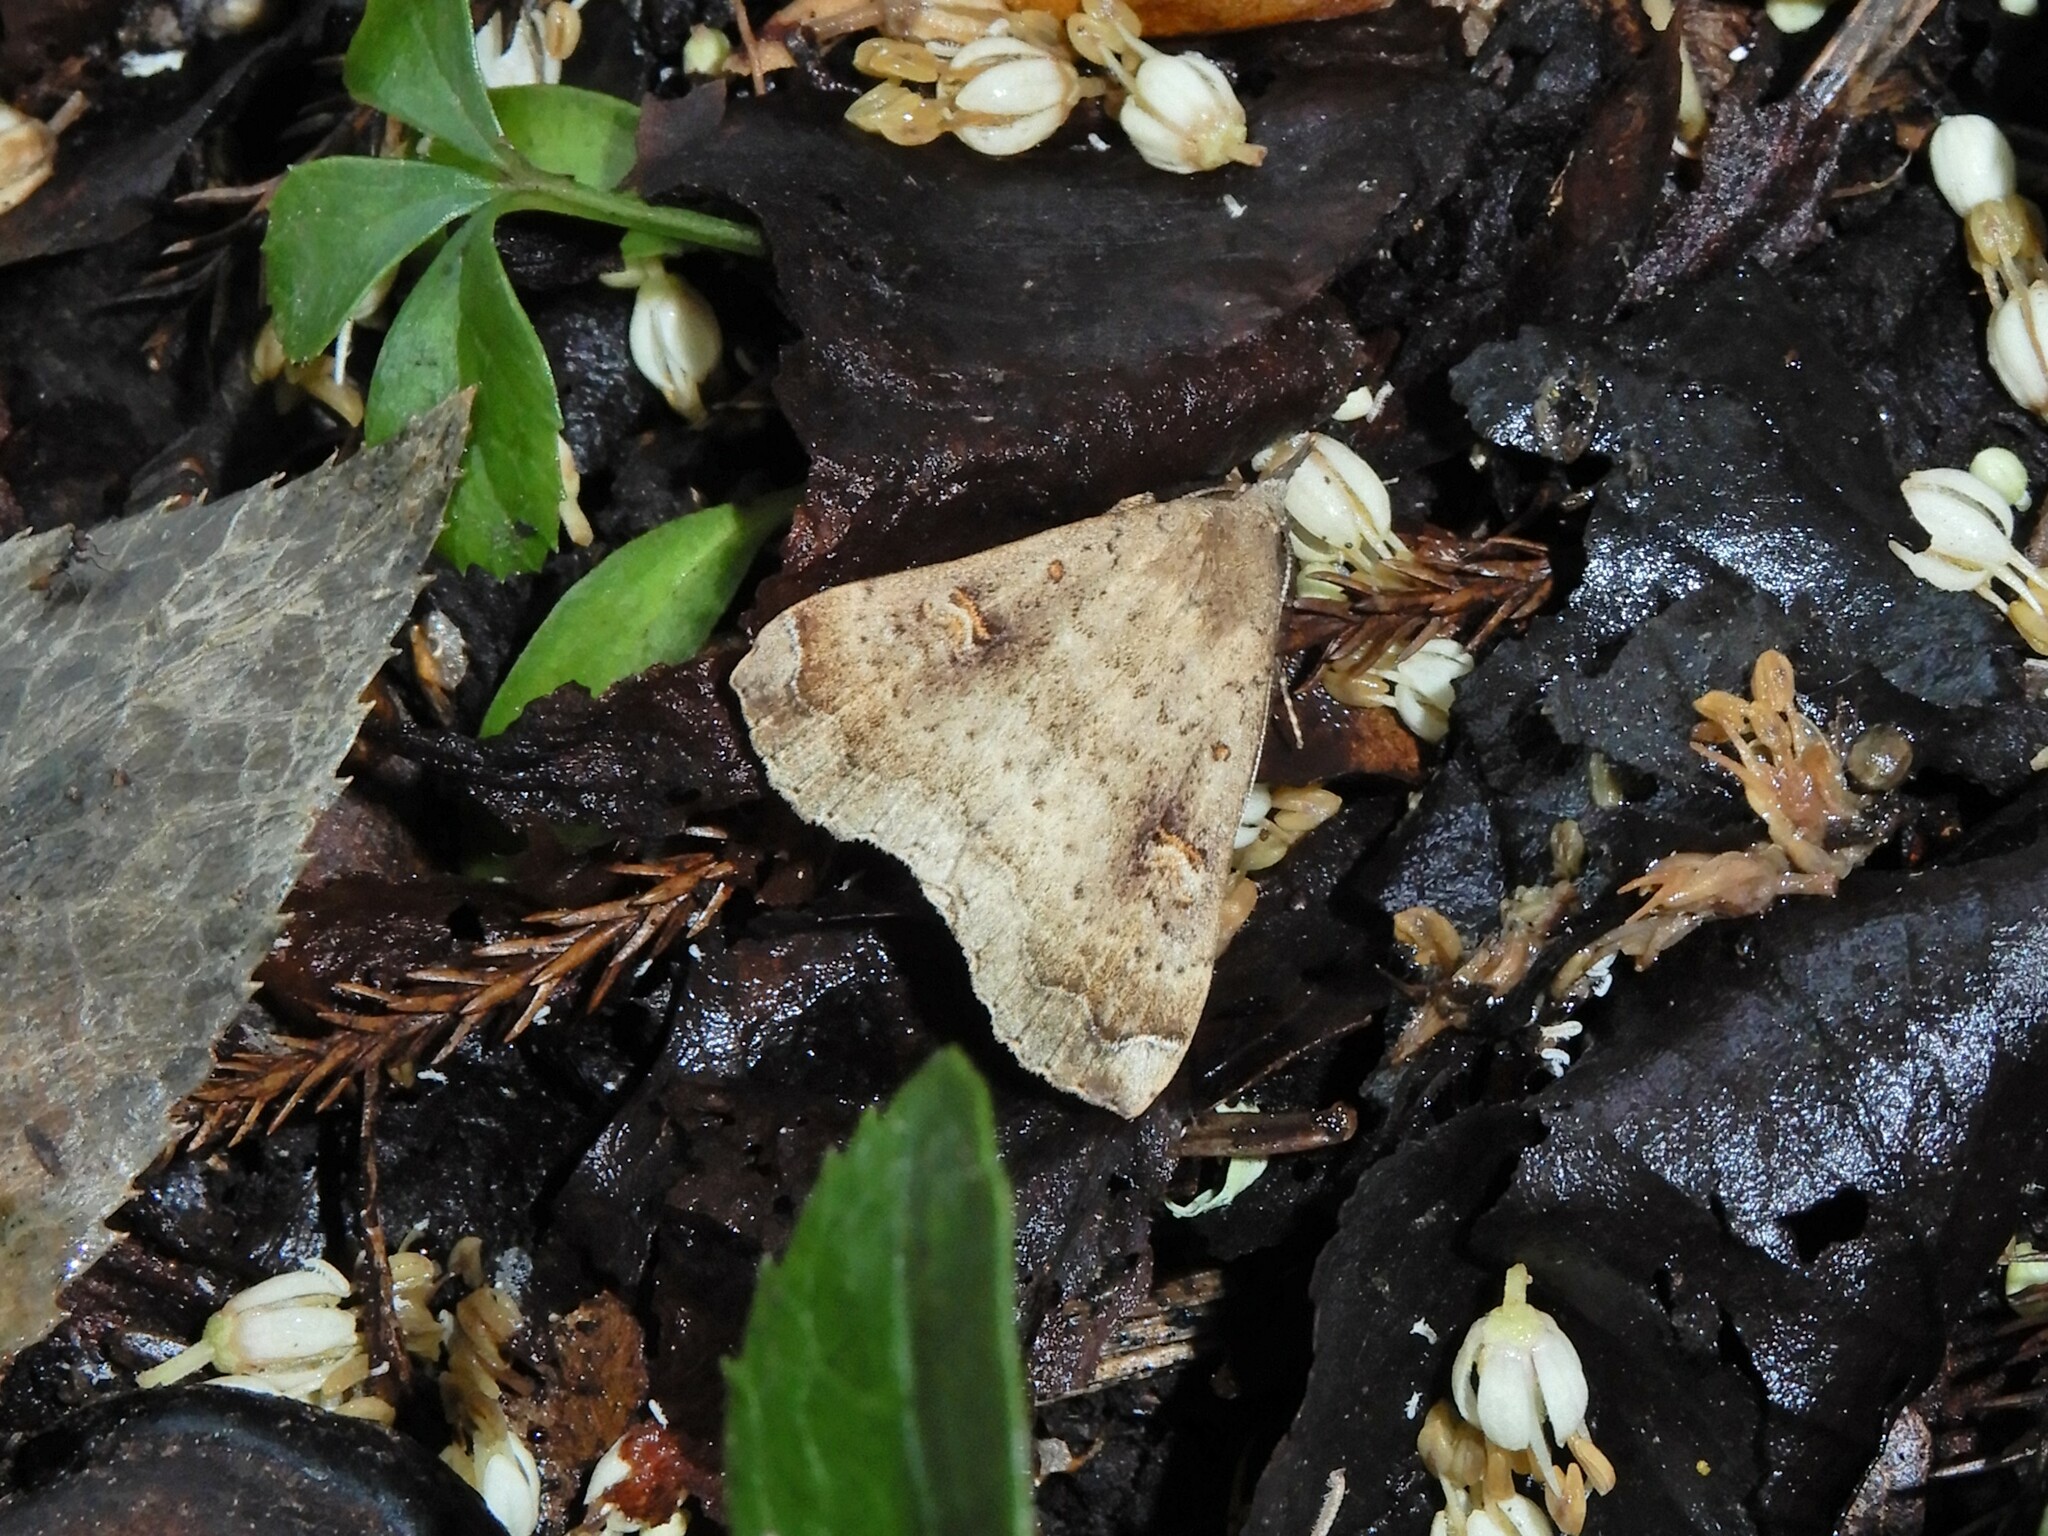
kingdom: Animalia
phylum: Arthropoda
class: Insecta
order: Lepidoptera
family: Erebidae
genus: Rhapsa
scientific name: Rhapsa scotosialis
